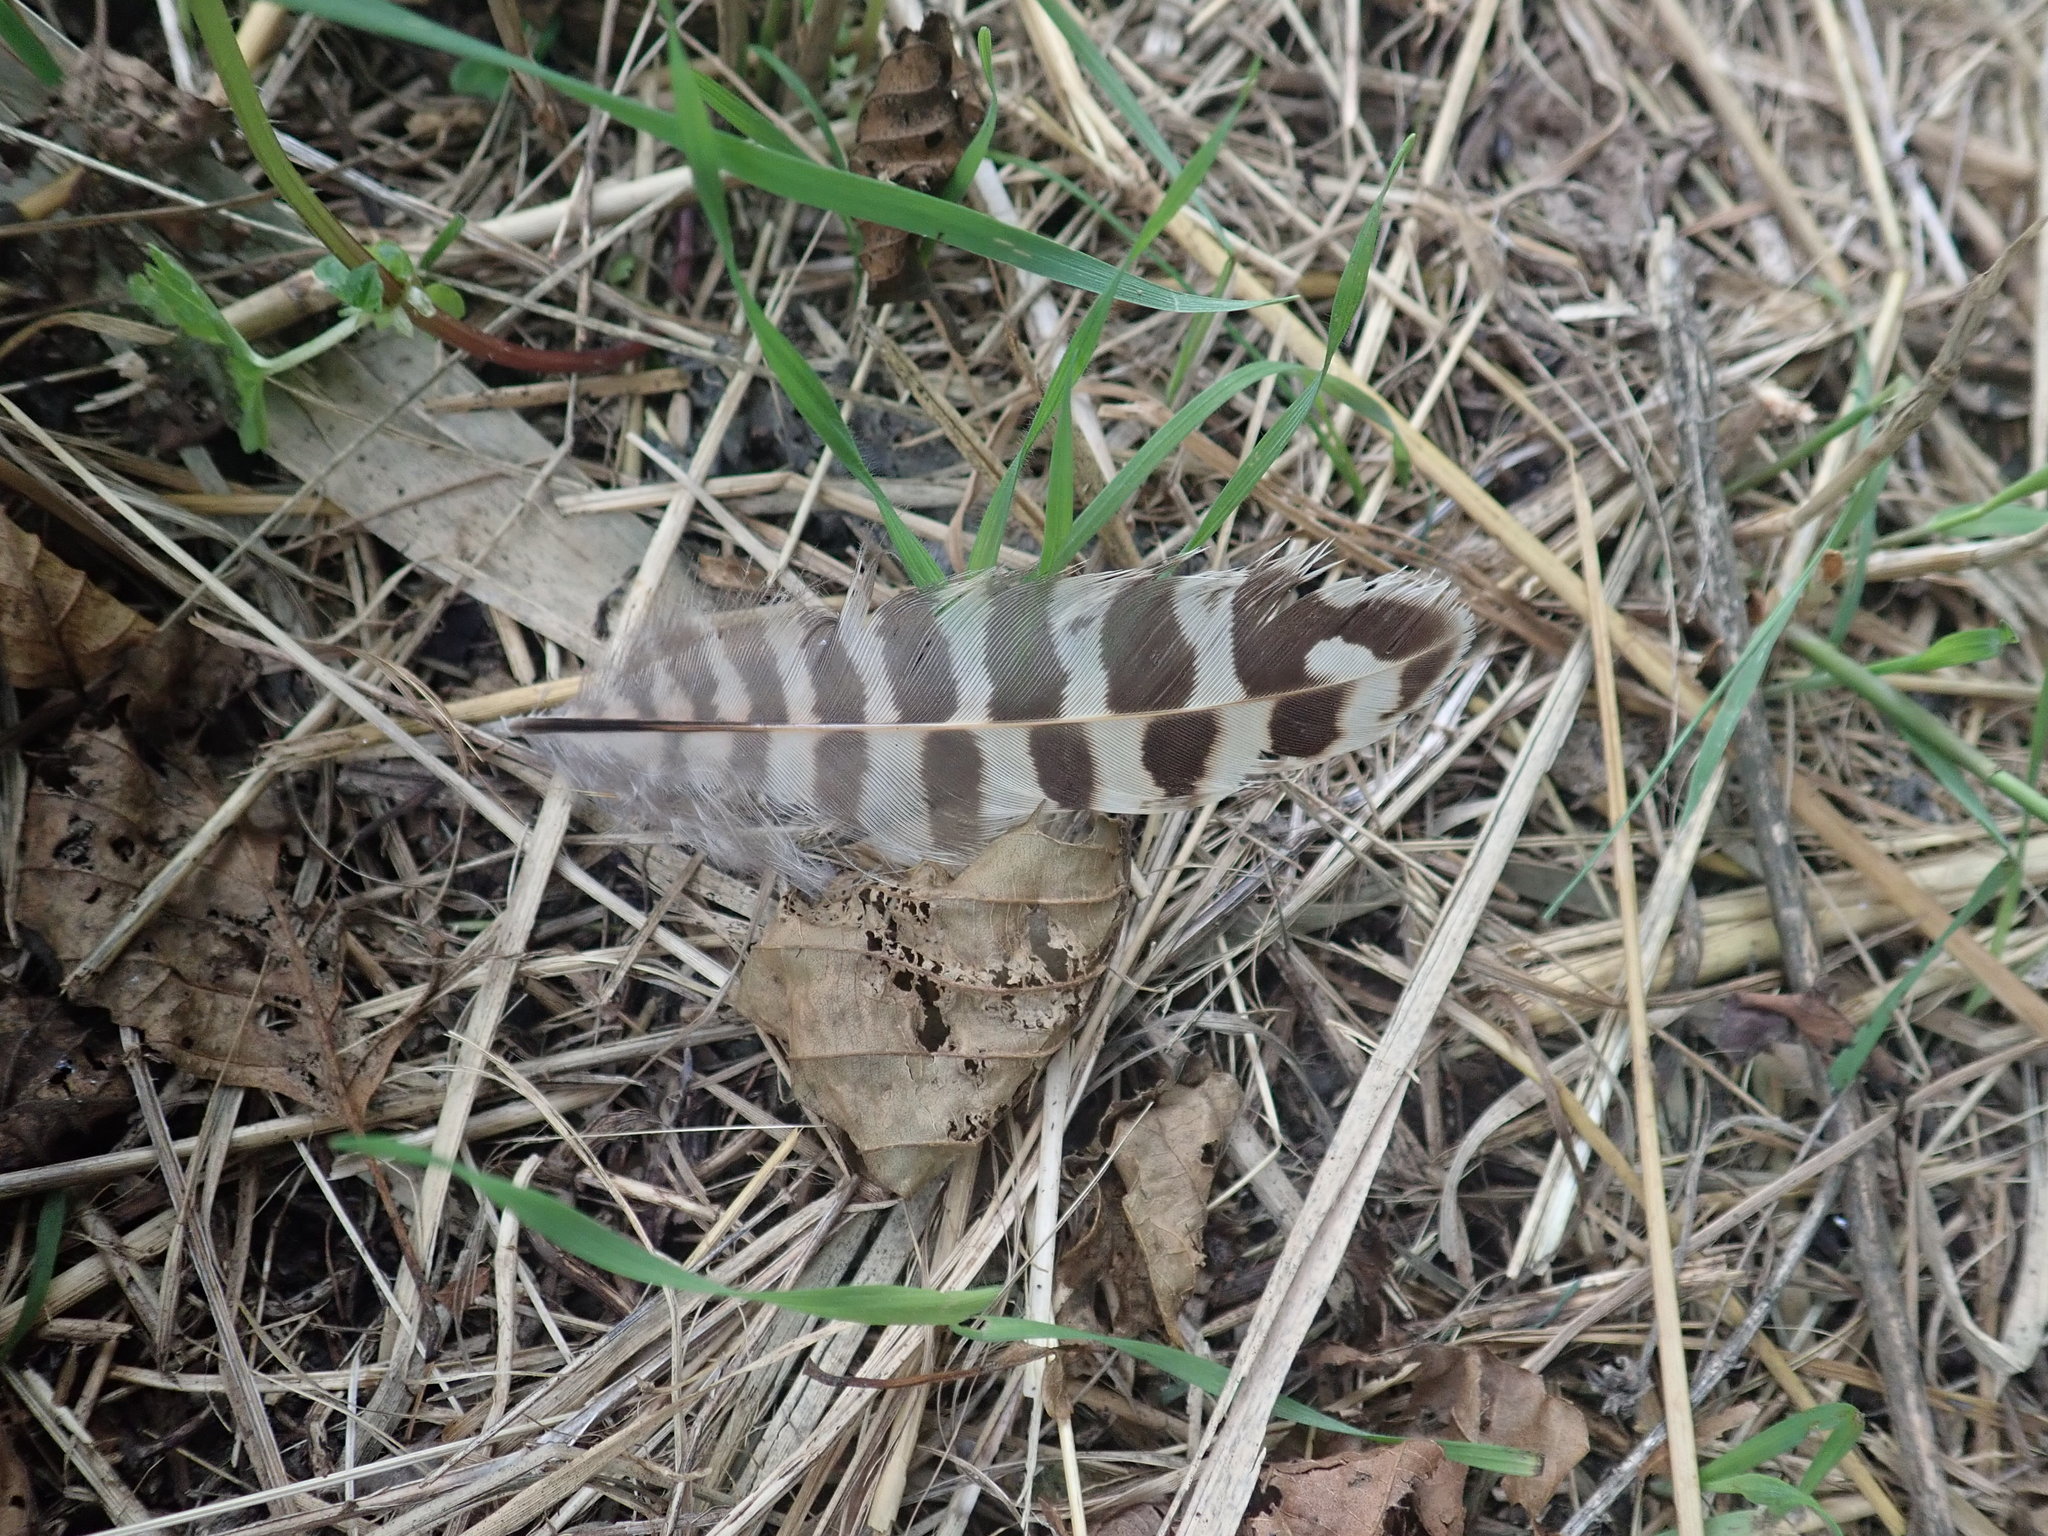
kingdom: Animalia
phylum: Chordata
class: Aves
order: Galliformes
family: Phasianidae
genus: Phasianus
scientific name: Phasianus colchicus
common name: Common pheasant
